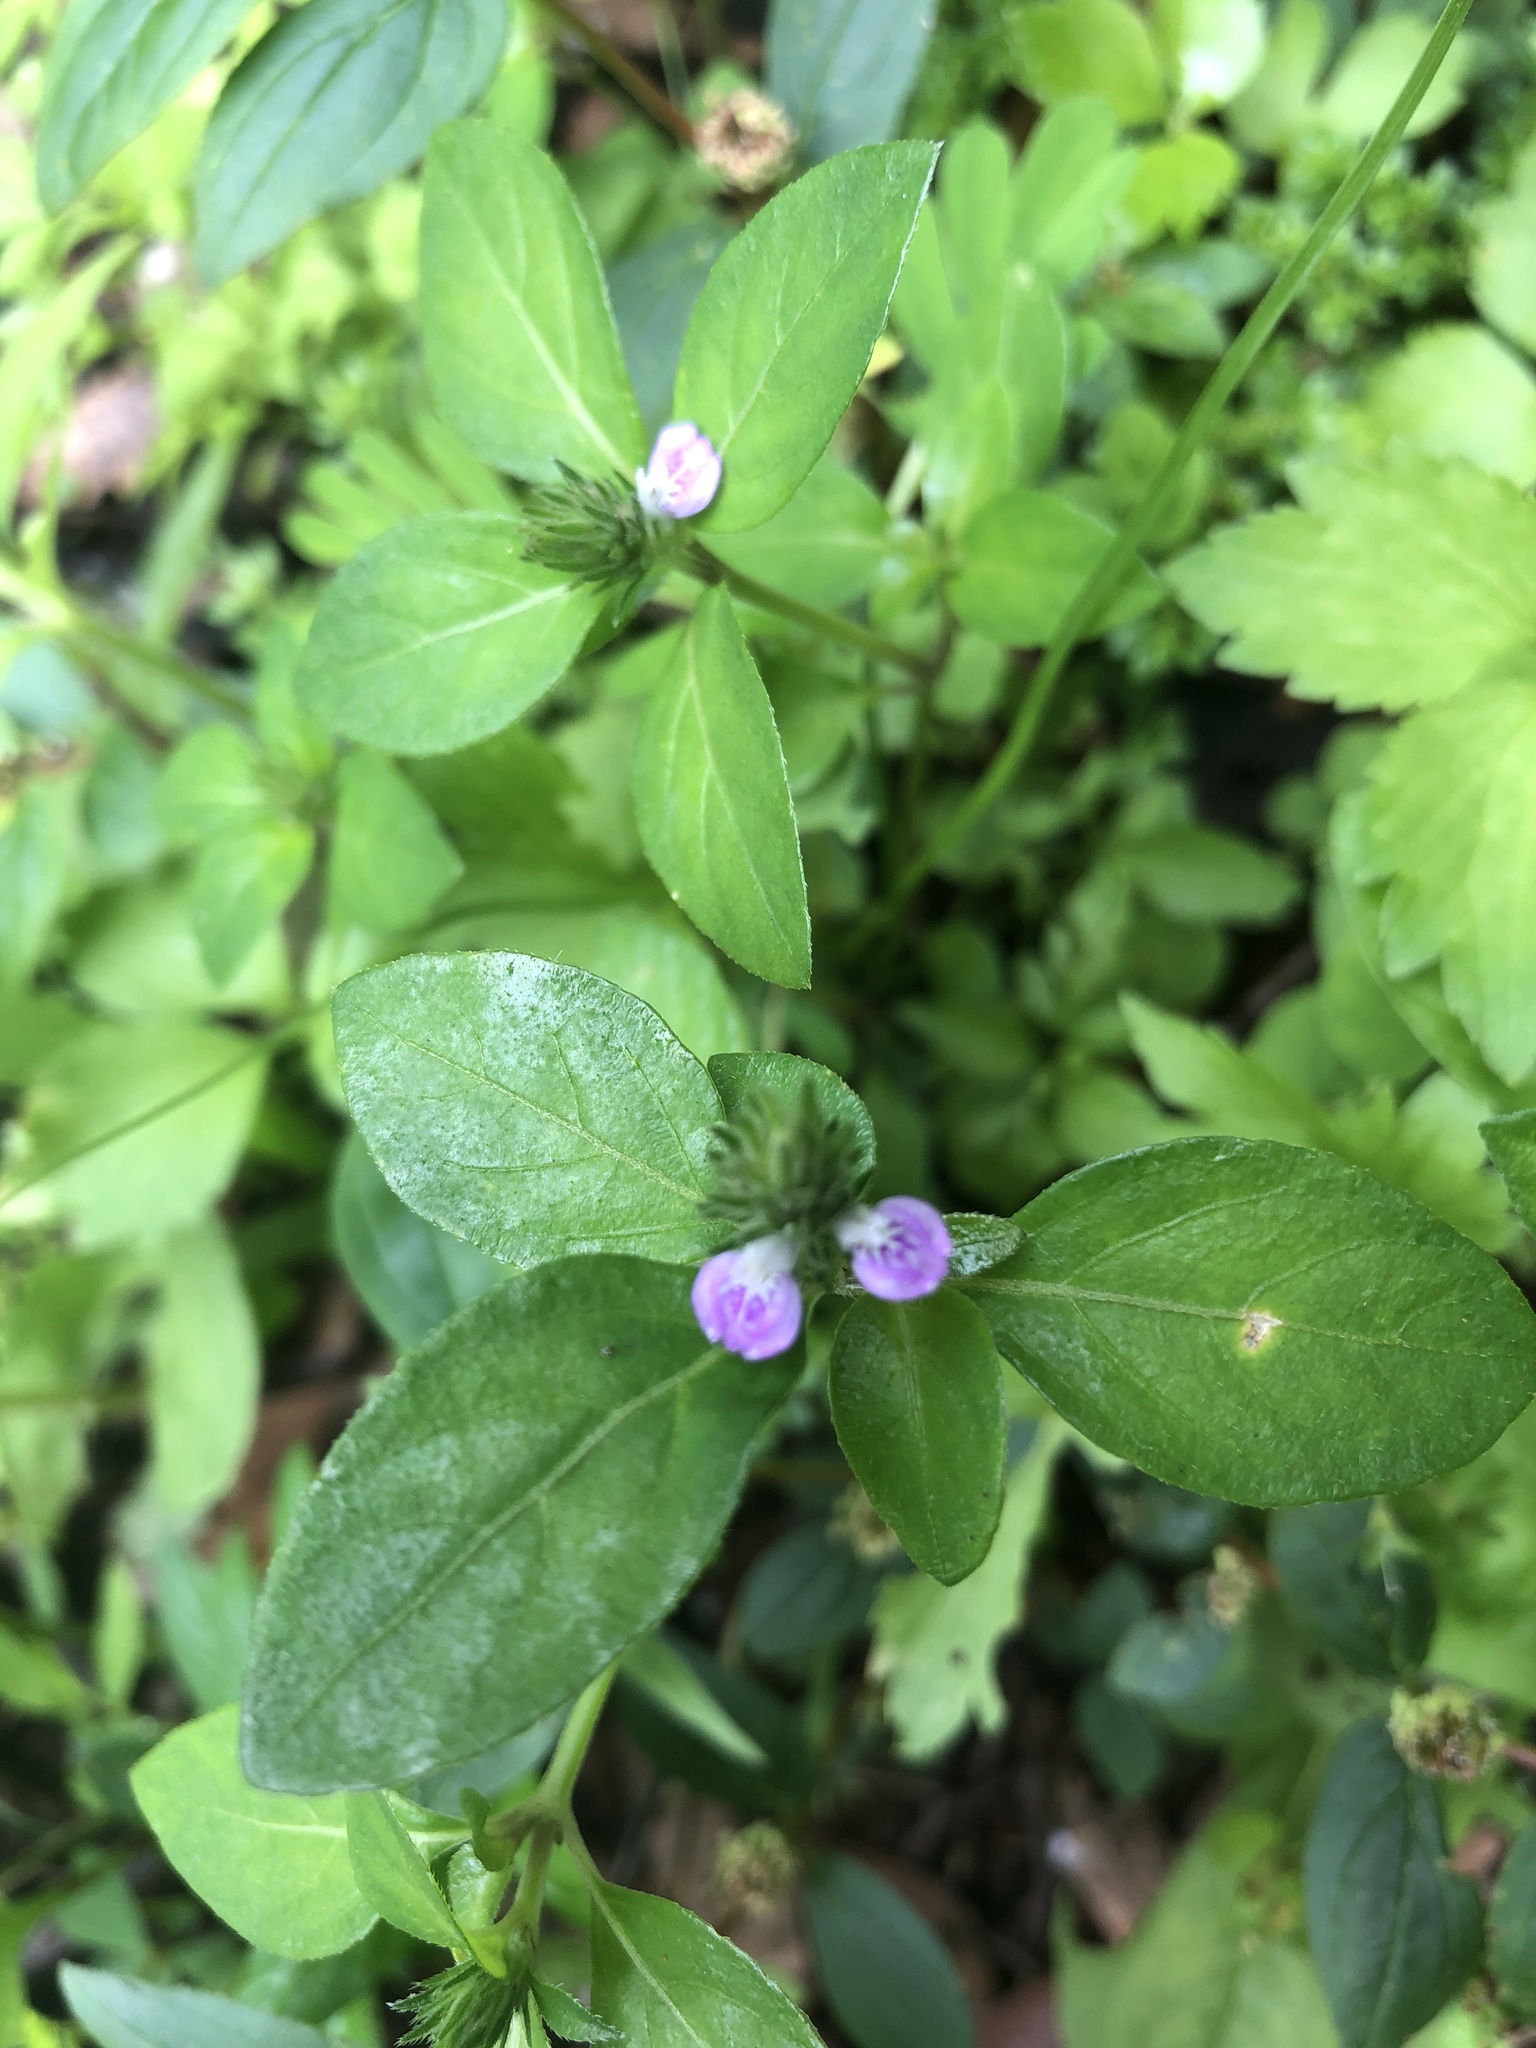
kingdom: Plantae
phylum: Tracheophyta
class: Magnoliopsida
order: Lamiales
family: Acanthaceae
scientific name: Acanthaceae
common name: Acanthaceae
